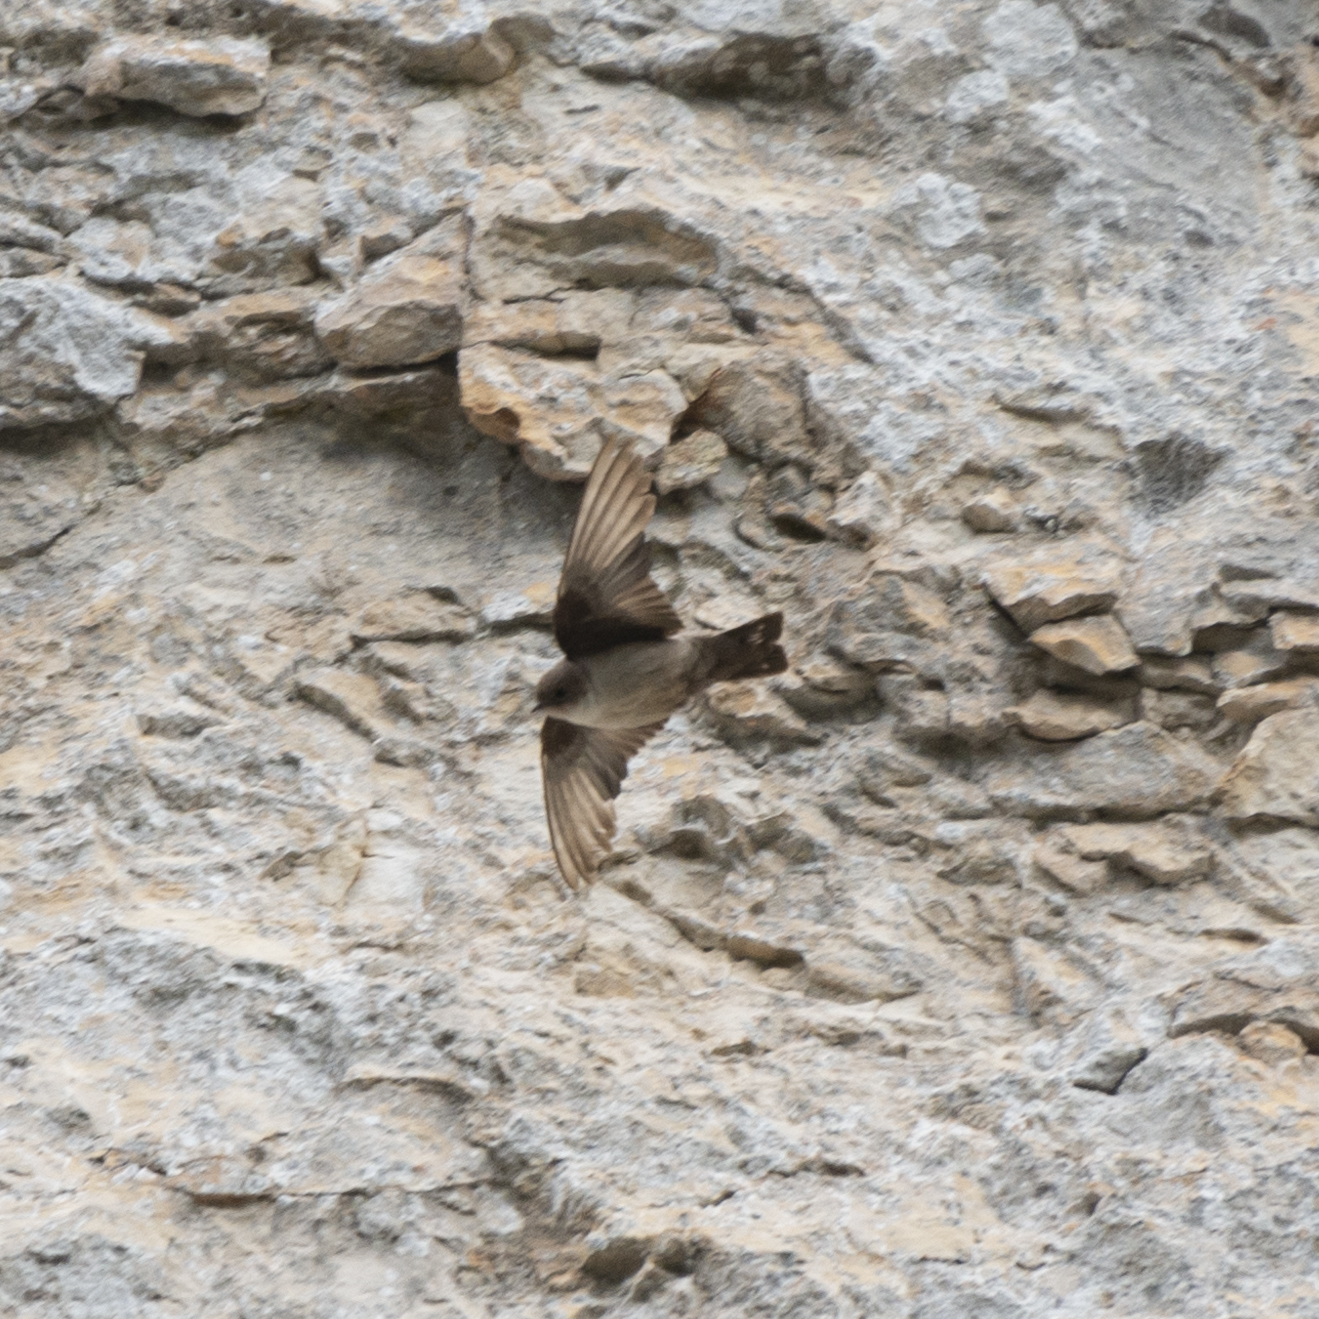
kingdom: Animalia
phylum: Chordata
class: Aves
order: Passeriformes
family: Hirundinidae
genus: Ptyonoprogne
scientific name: Ptyonoprogne rupestris
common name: Eurasian crag martin
